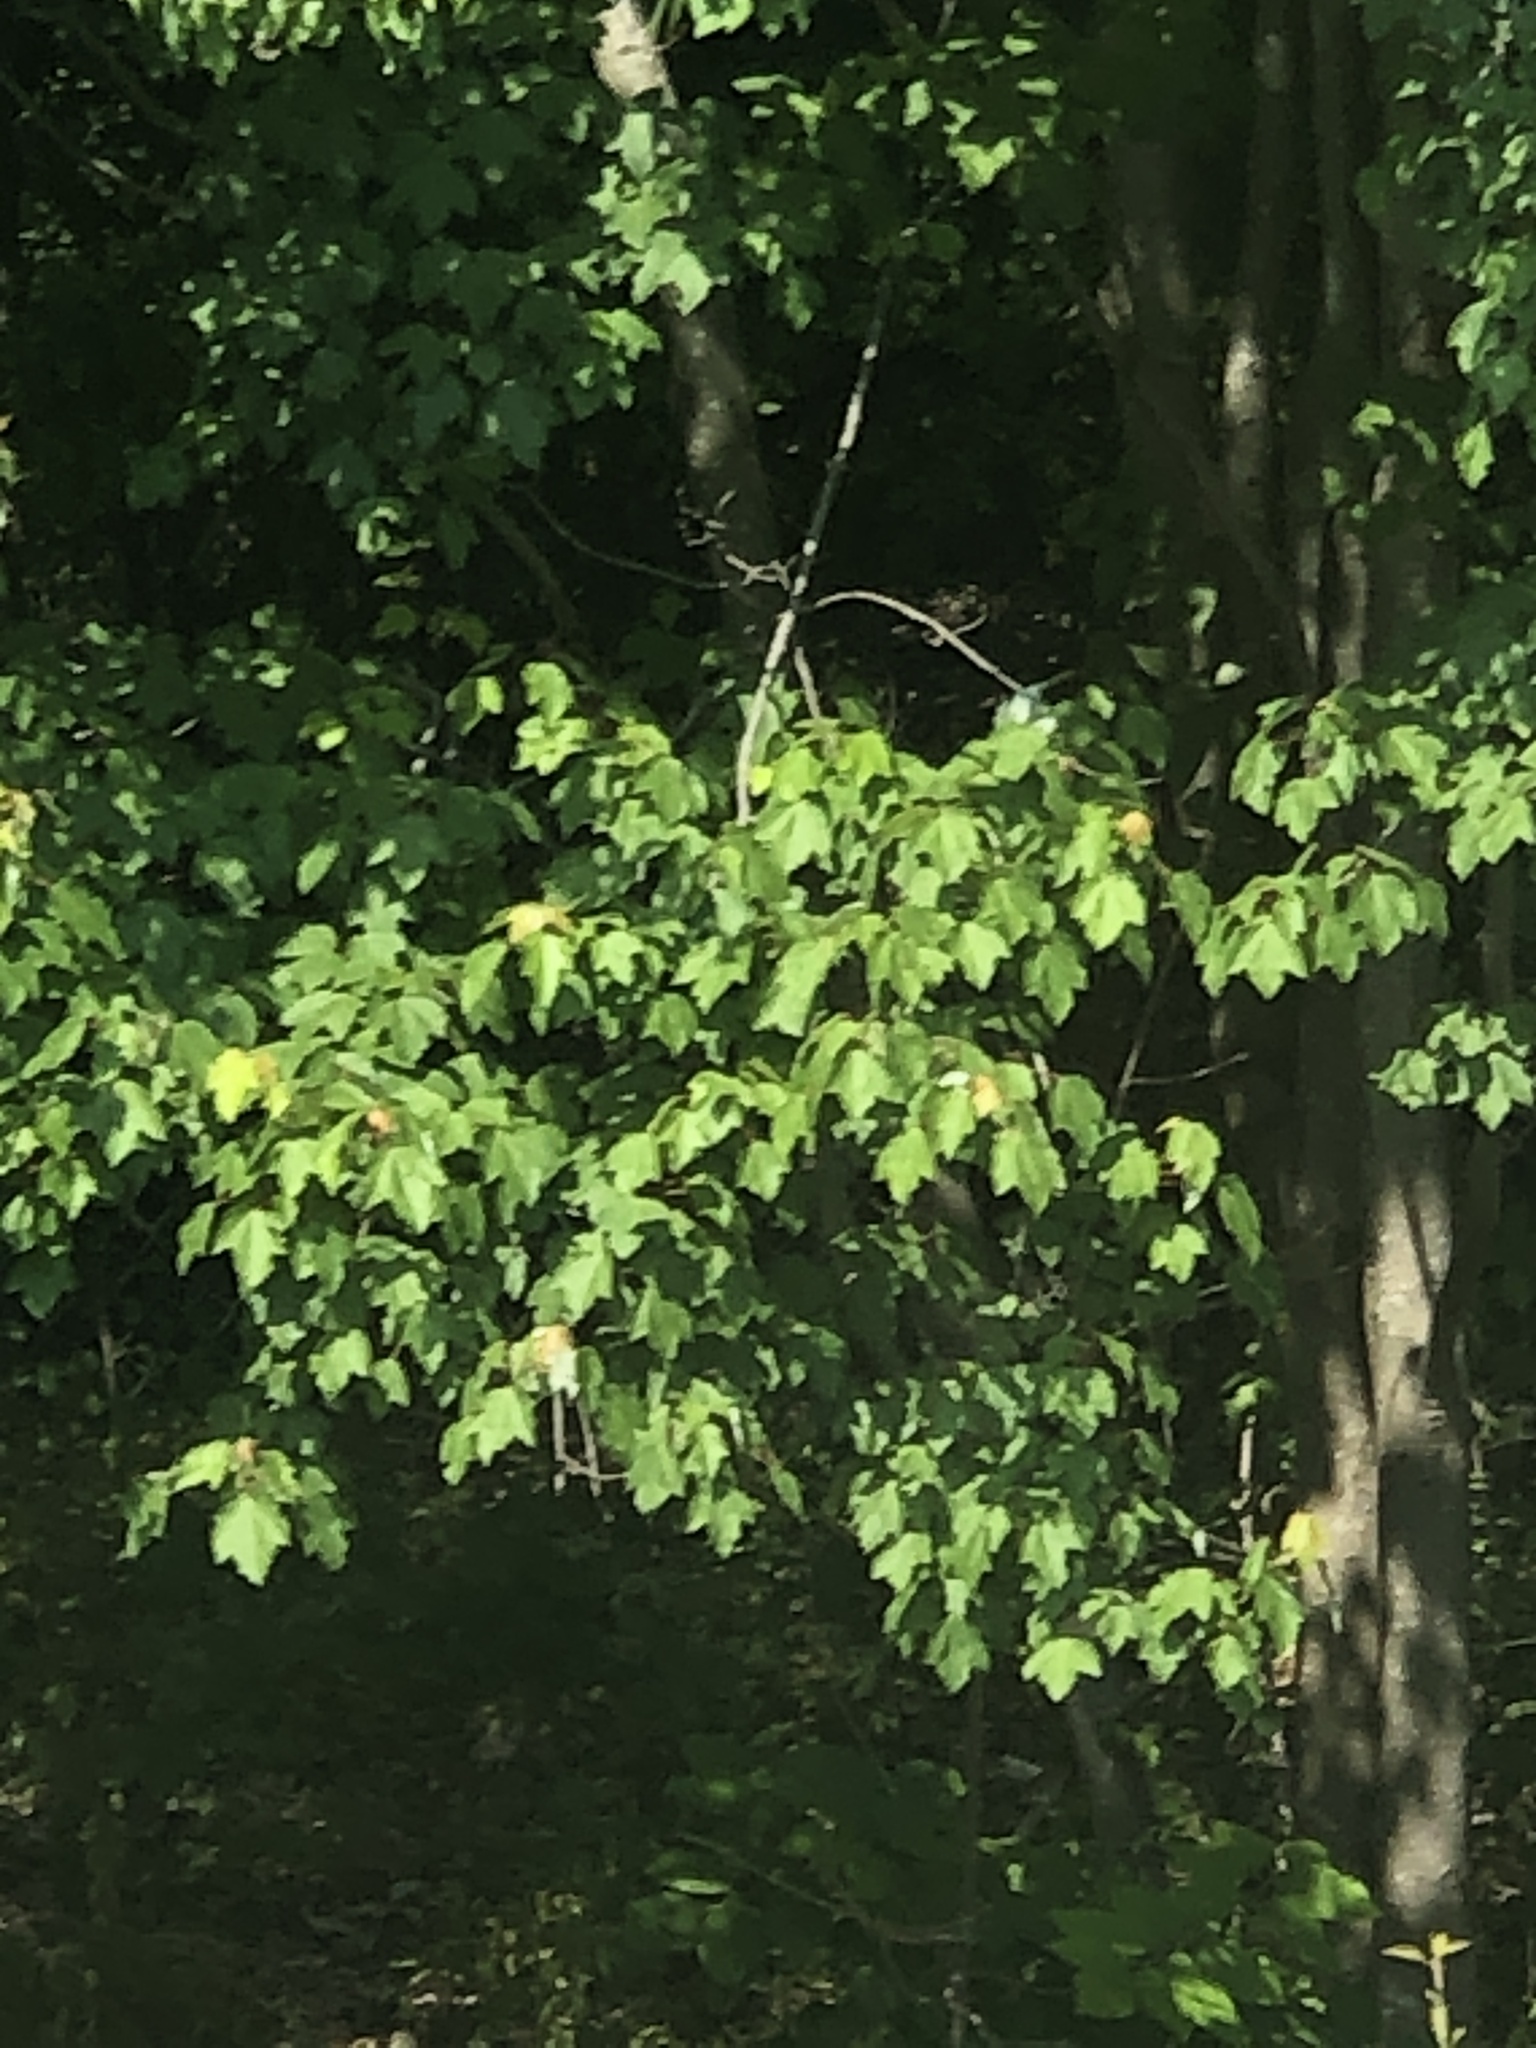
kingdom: Plantae
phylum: Tracheophyta
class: Magnoliopsida
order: Sapindales
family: Sapindaceae
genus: Acer
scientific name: Acer rubrum
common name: Red maple
